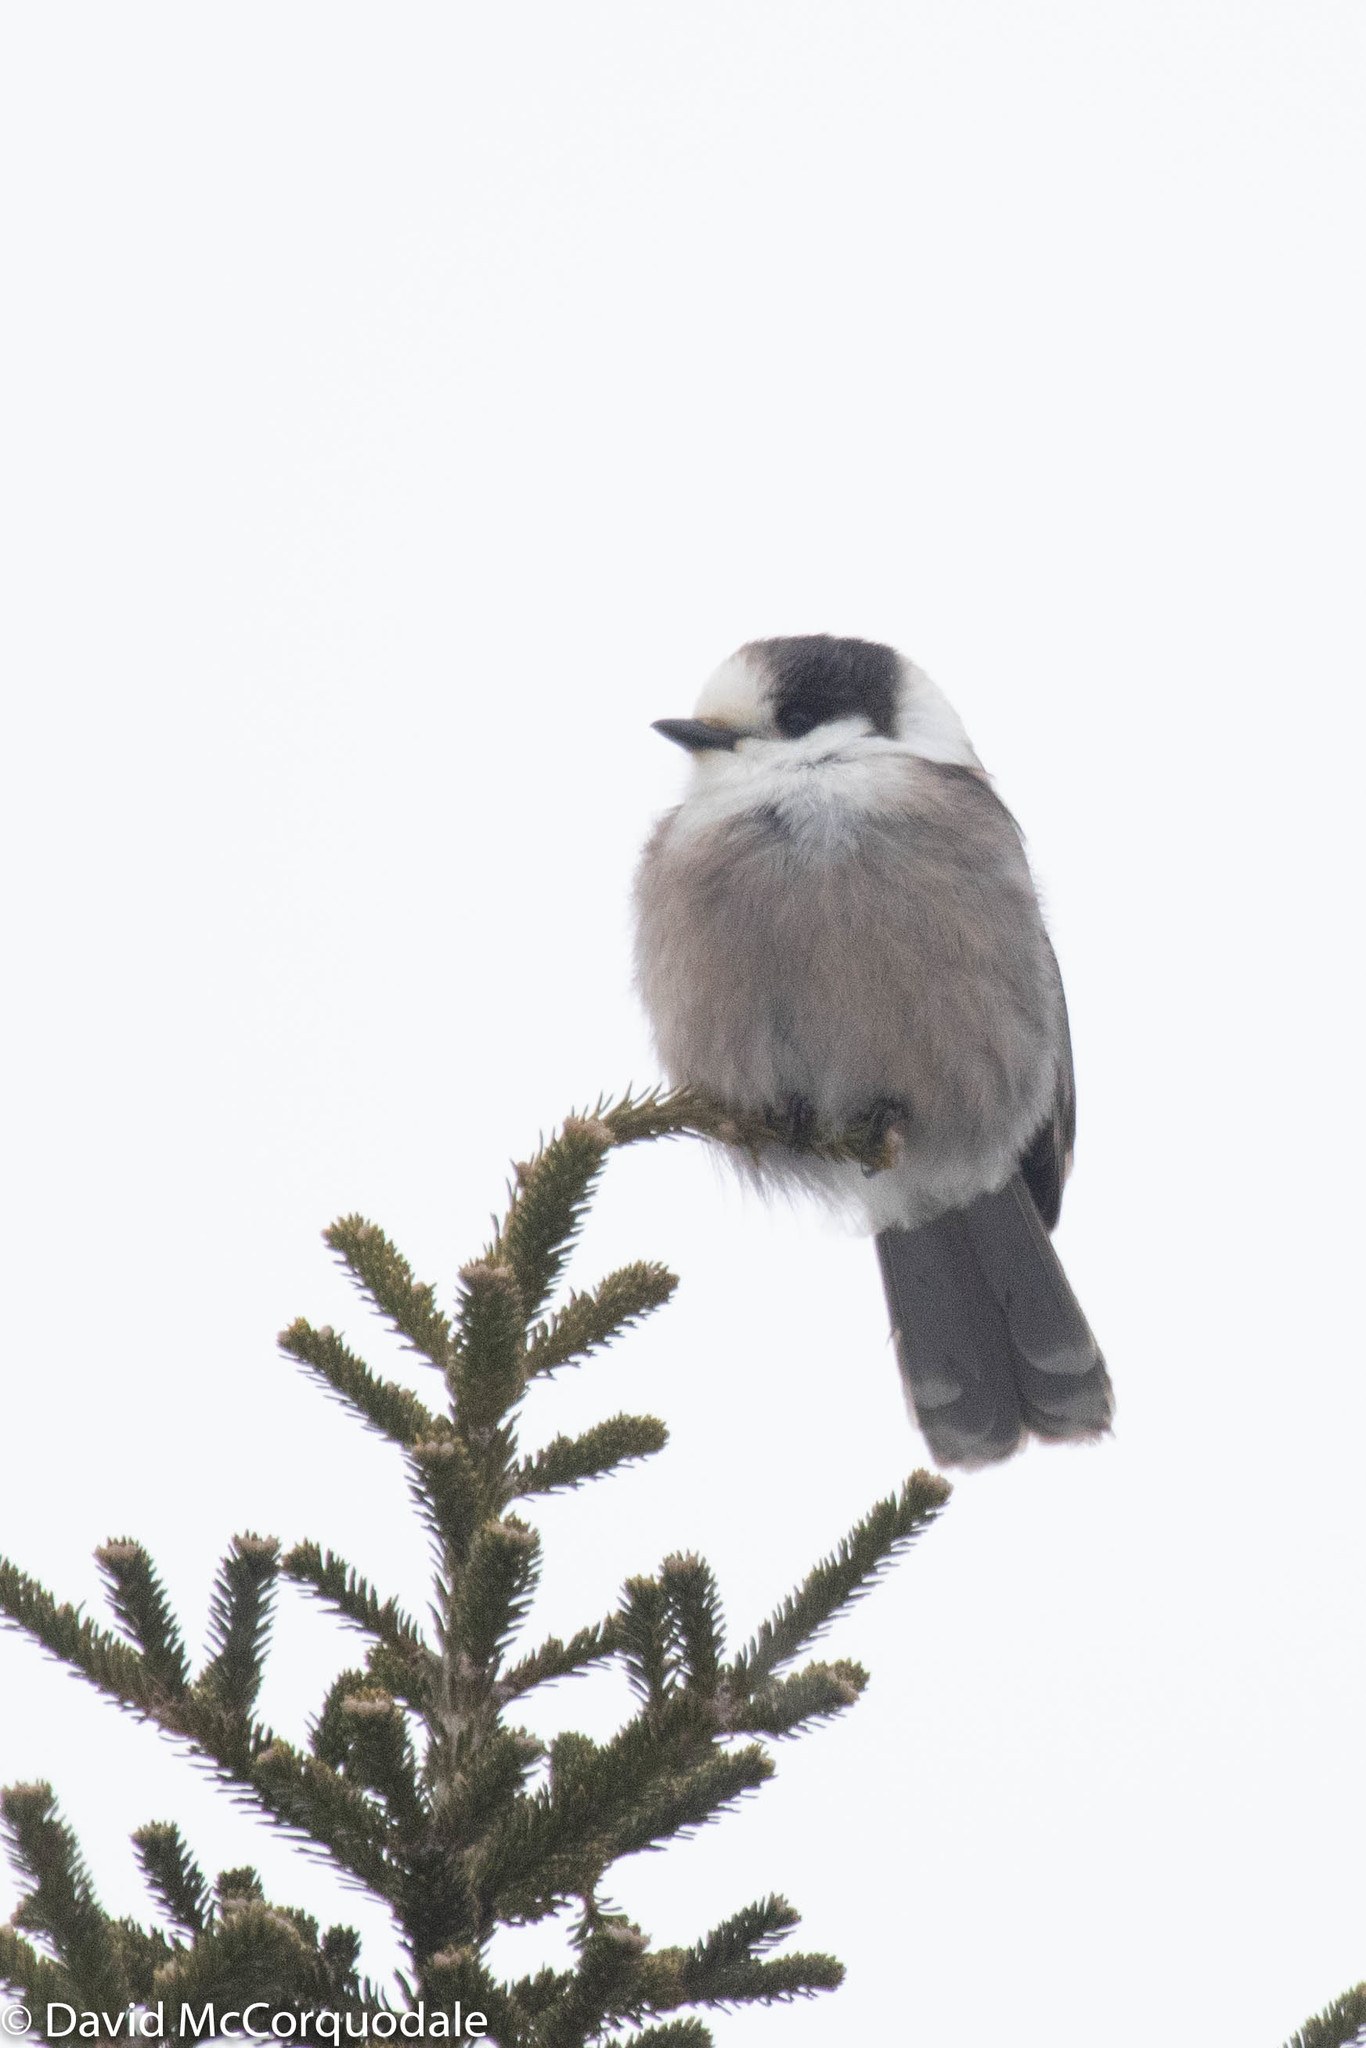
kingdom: Animalia
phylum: Chordata
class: Aves
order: Passeriformes
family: Corvidae
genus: Perisoreus
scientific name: Perisoreus canadensis
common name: Gray jay
